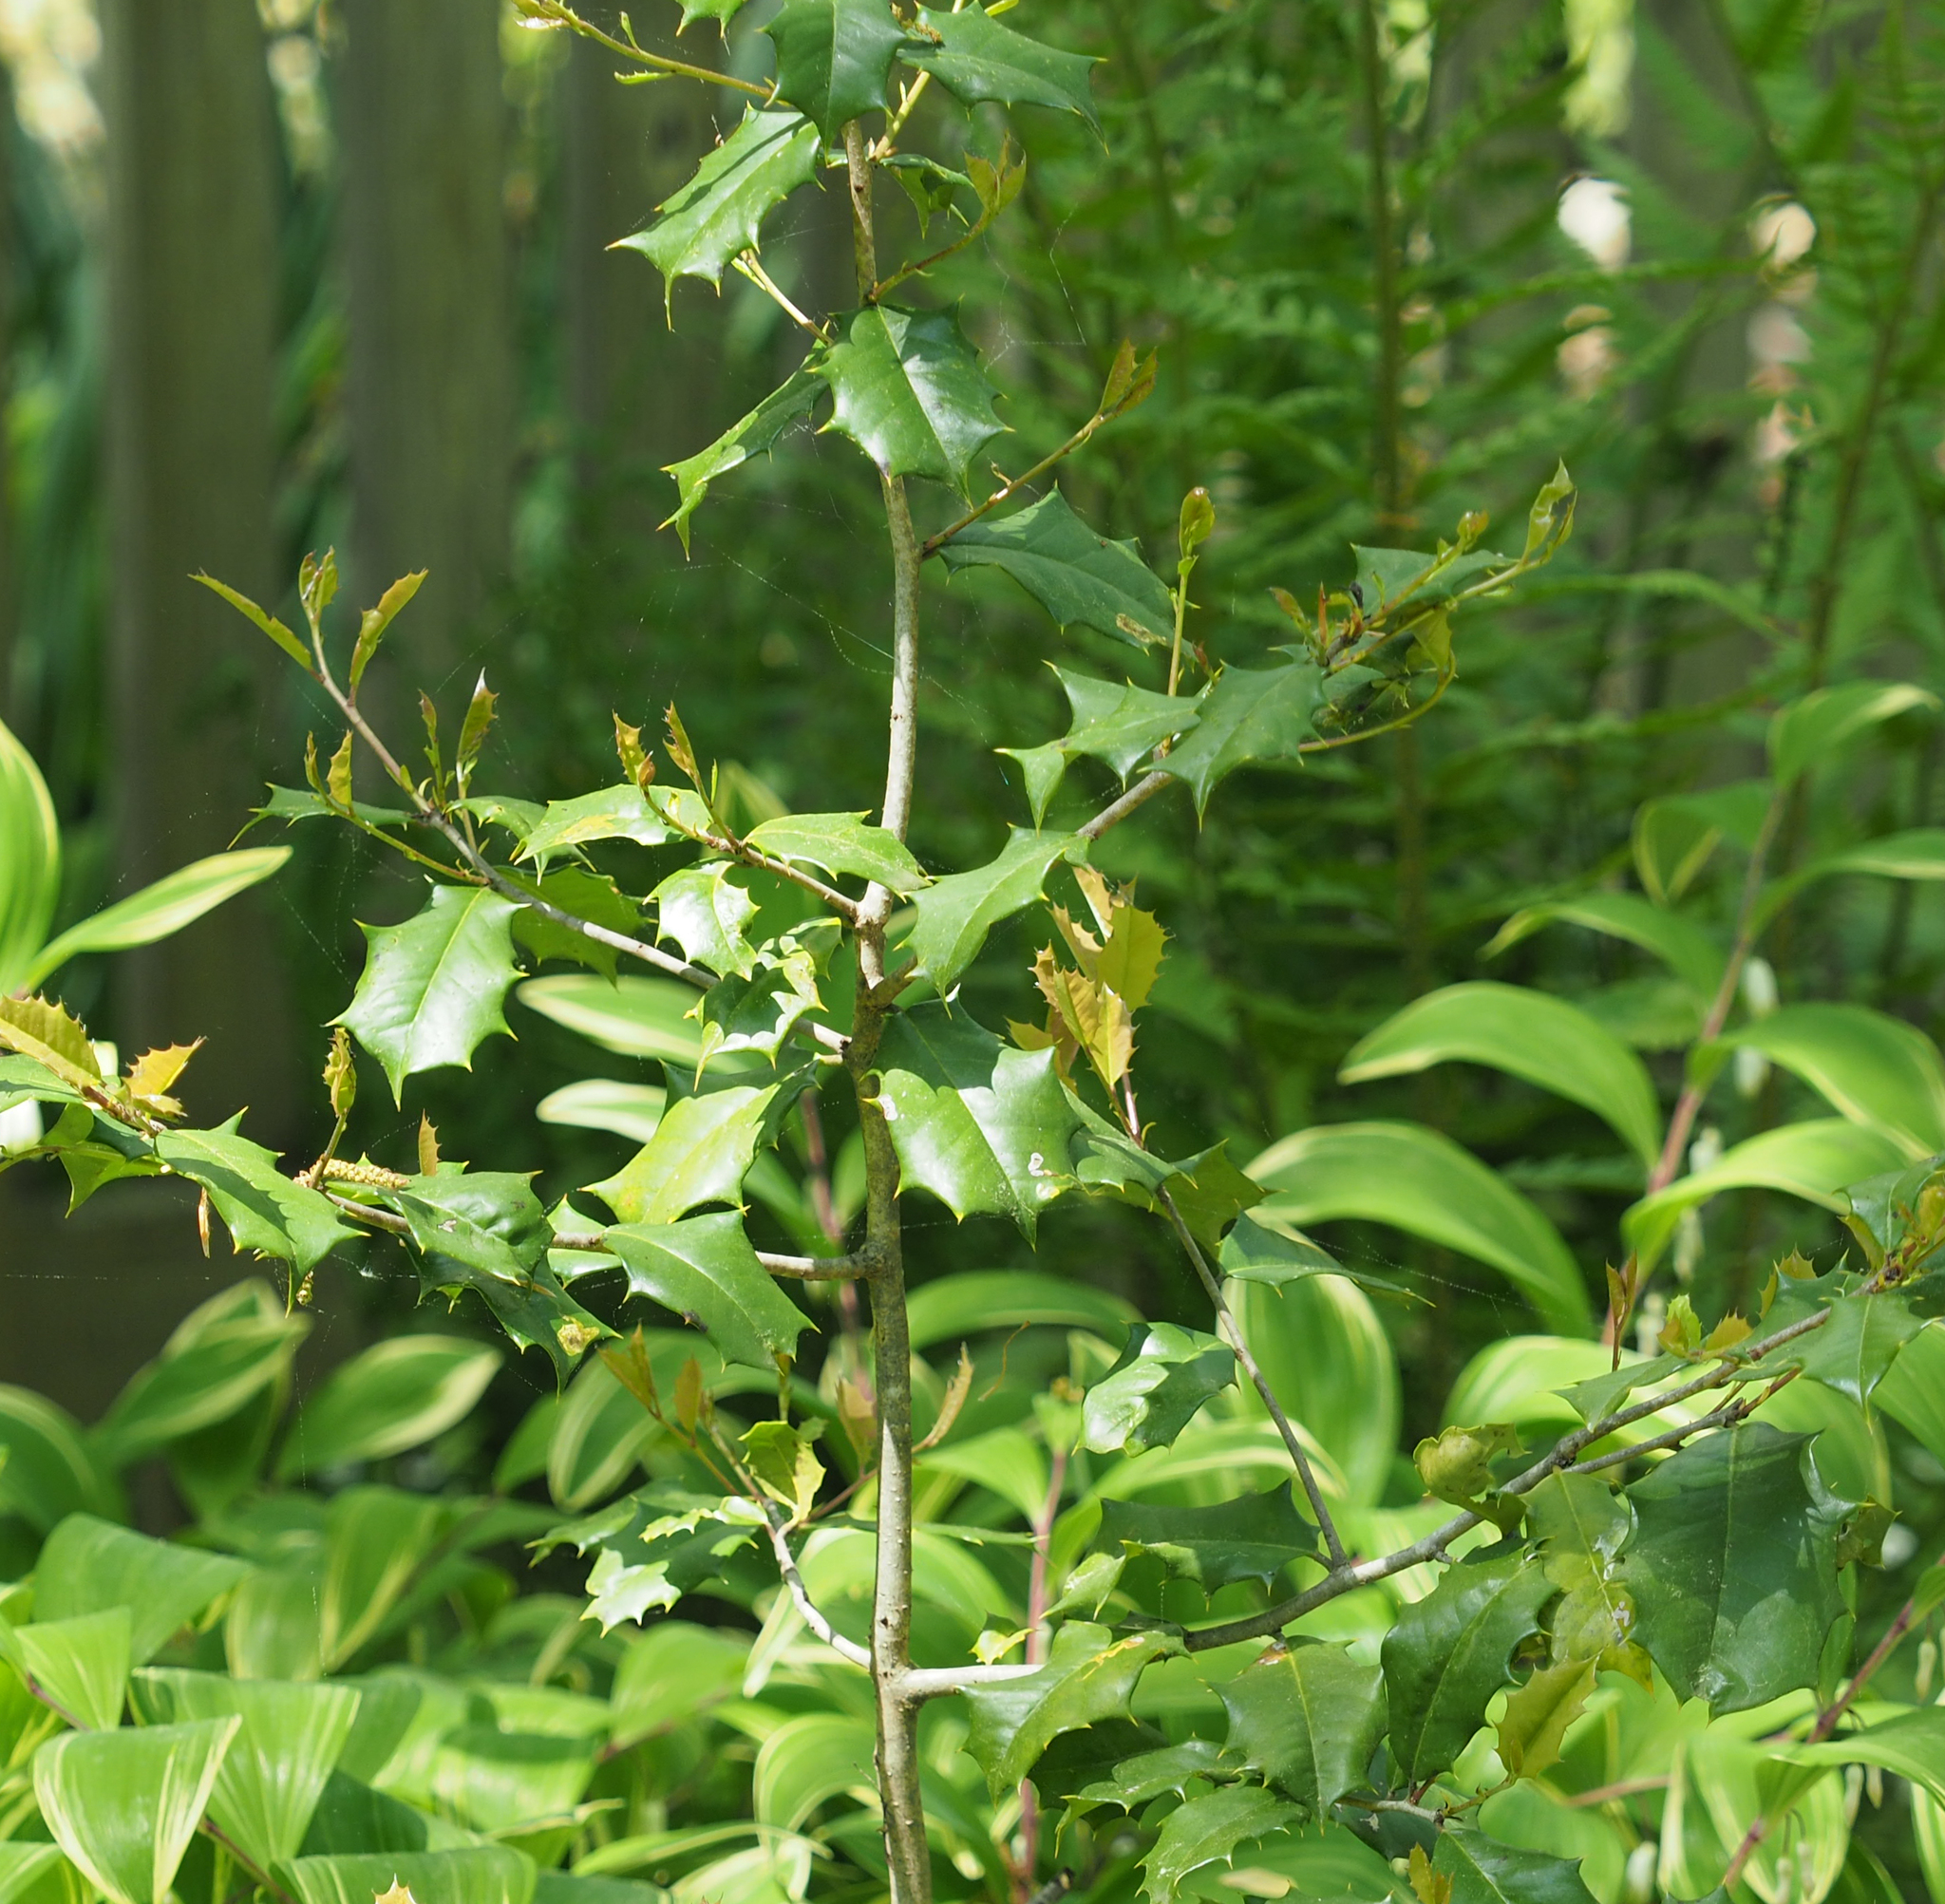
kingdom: Plantae
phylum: Tracheophyta
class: Magnoliopsida
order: Aquifoliales
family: Aquifoliaceae
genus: Ilex
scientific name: Ilex opaca
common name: American holly
